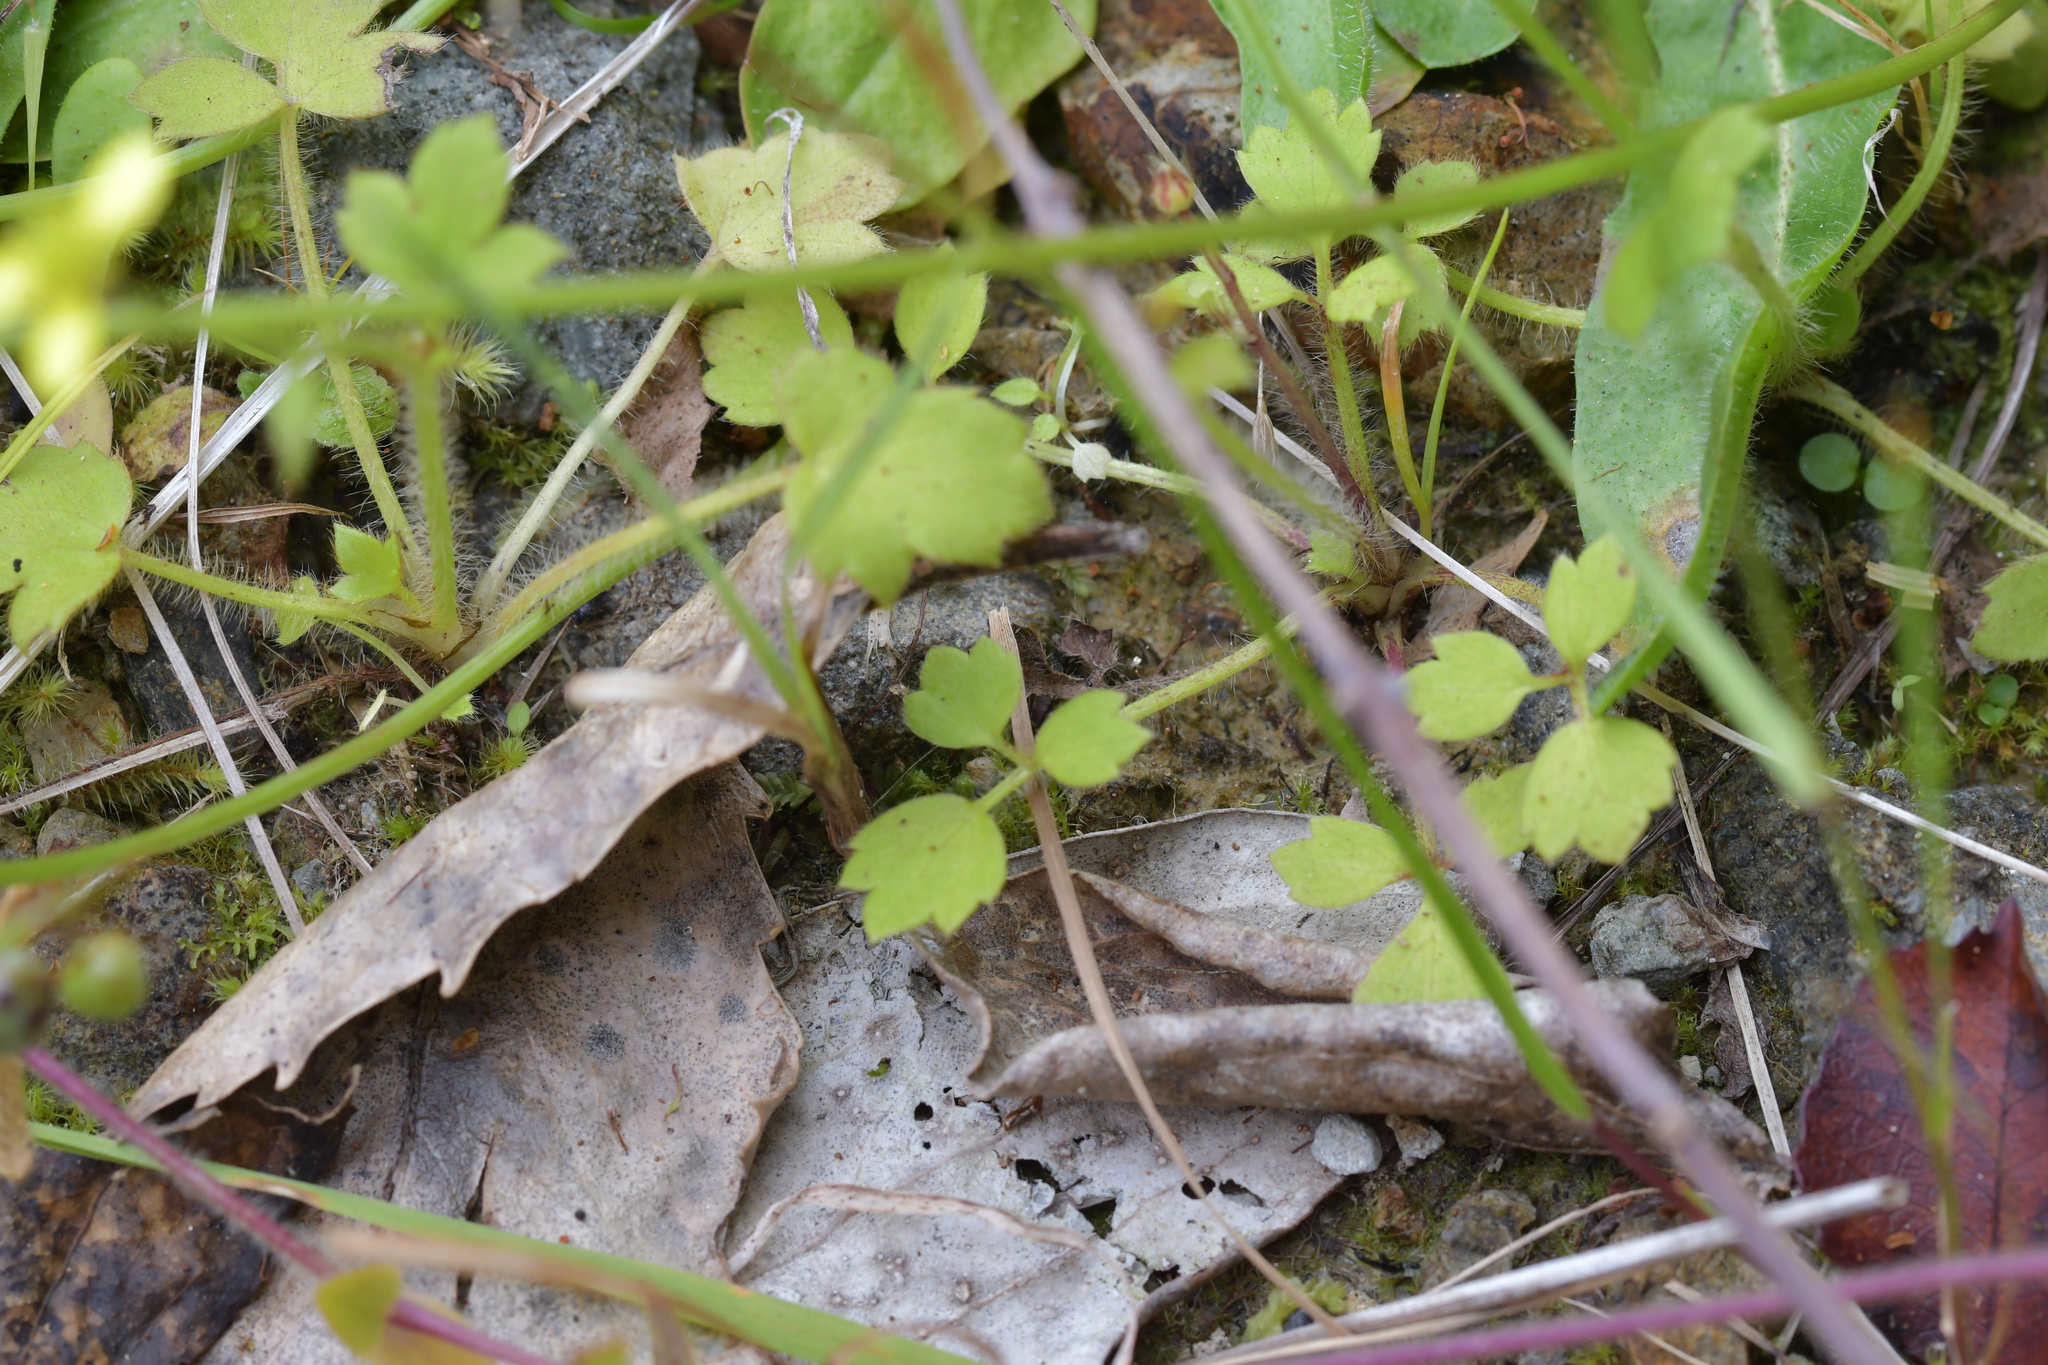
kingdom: Plantae
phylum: Tracheophyta
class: Magnoliopsida
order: Ranunculales
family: Ranunculaceae
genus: Ranunculus
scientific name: Ranunculus reflexus
